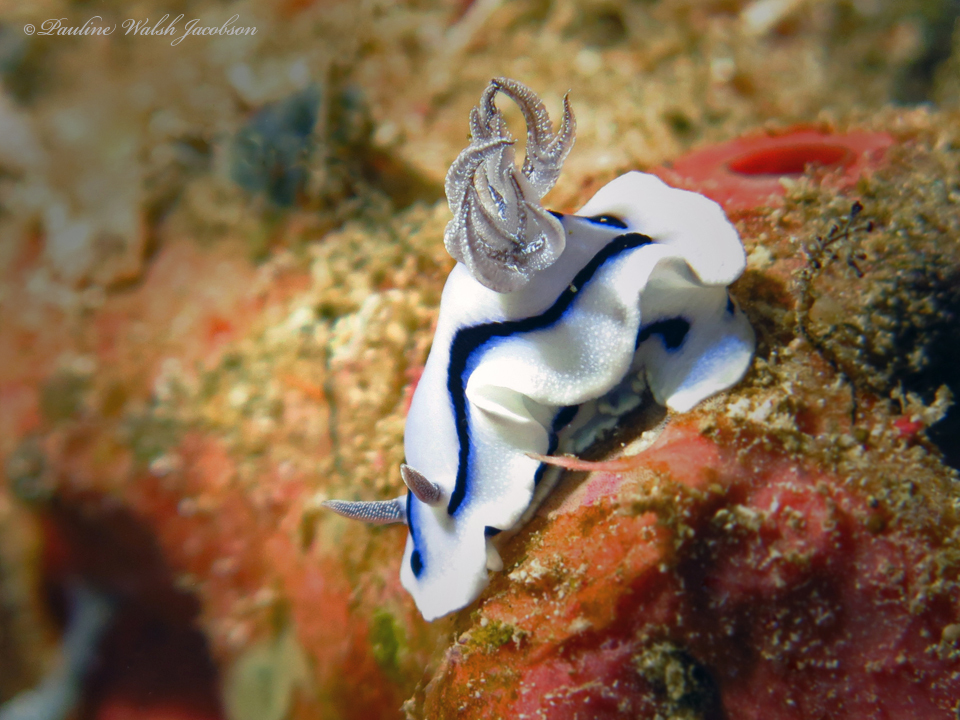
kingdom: Animalia
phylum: Mollusca
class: Gastropoda
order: Nudibranchia
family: Chromodorididae
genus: Chromodoris
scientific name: Chromodoris willani
